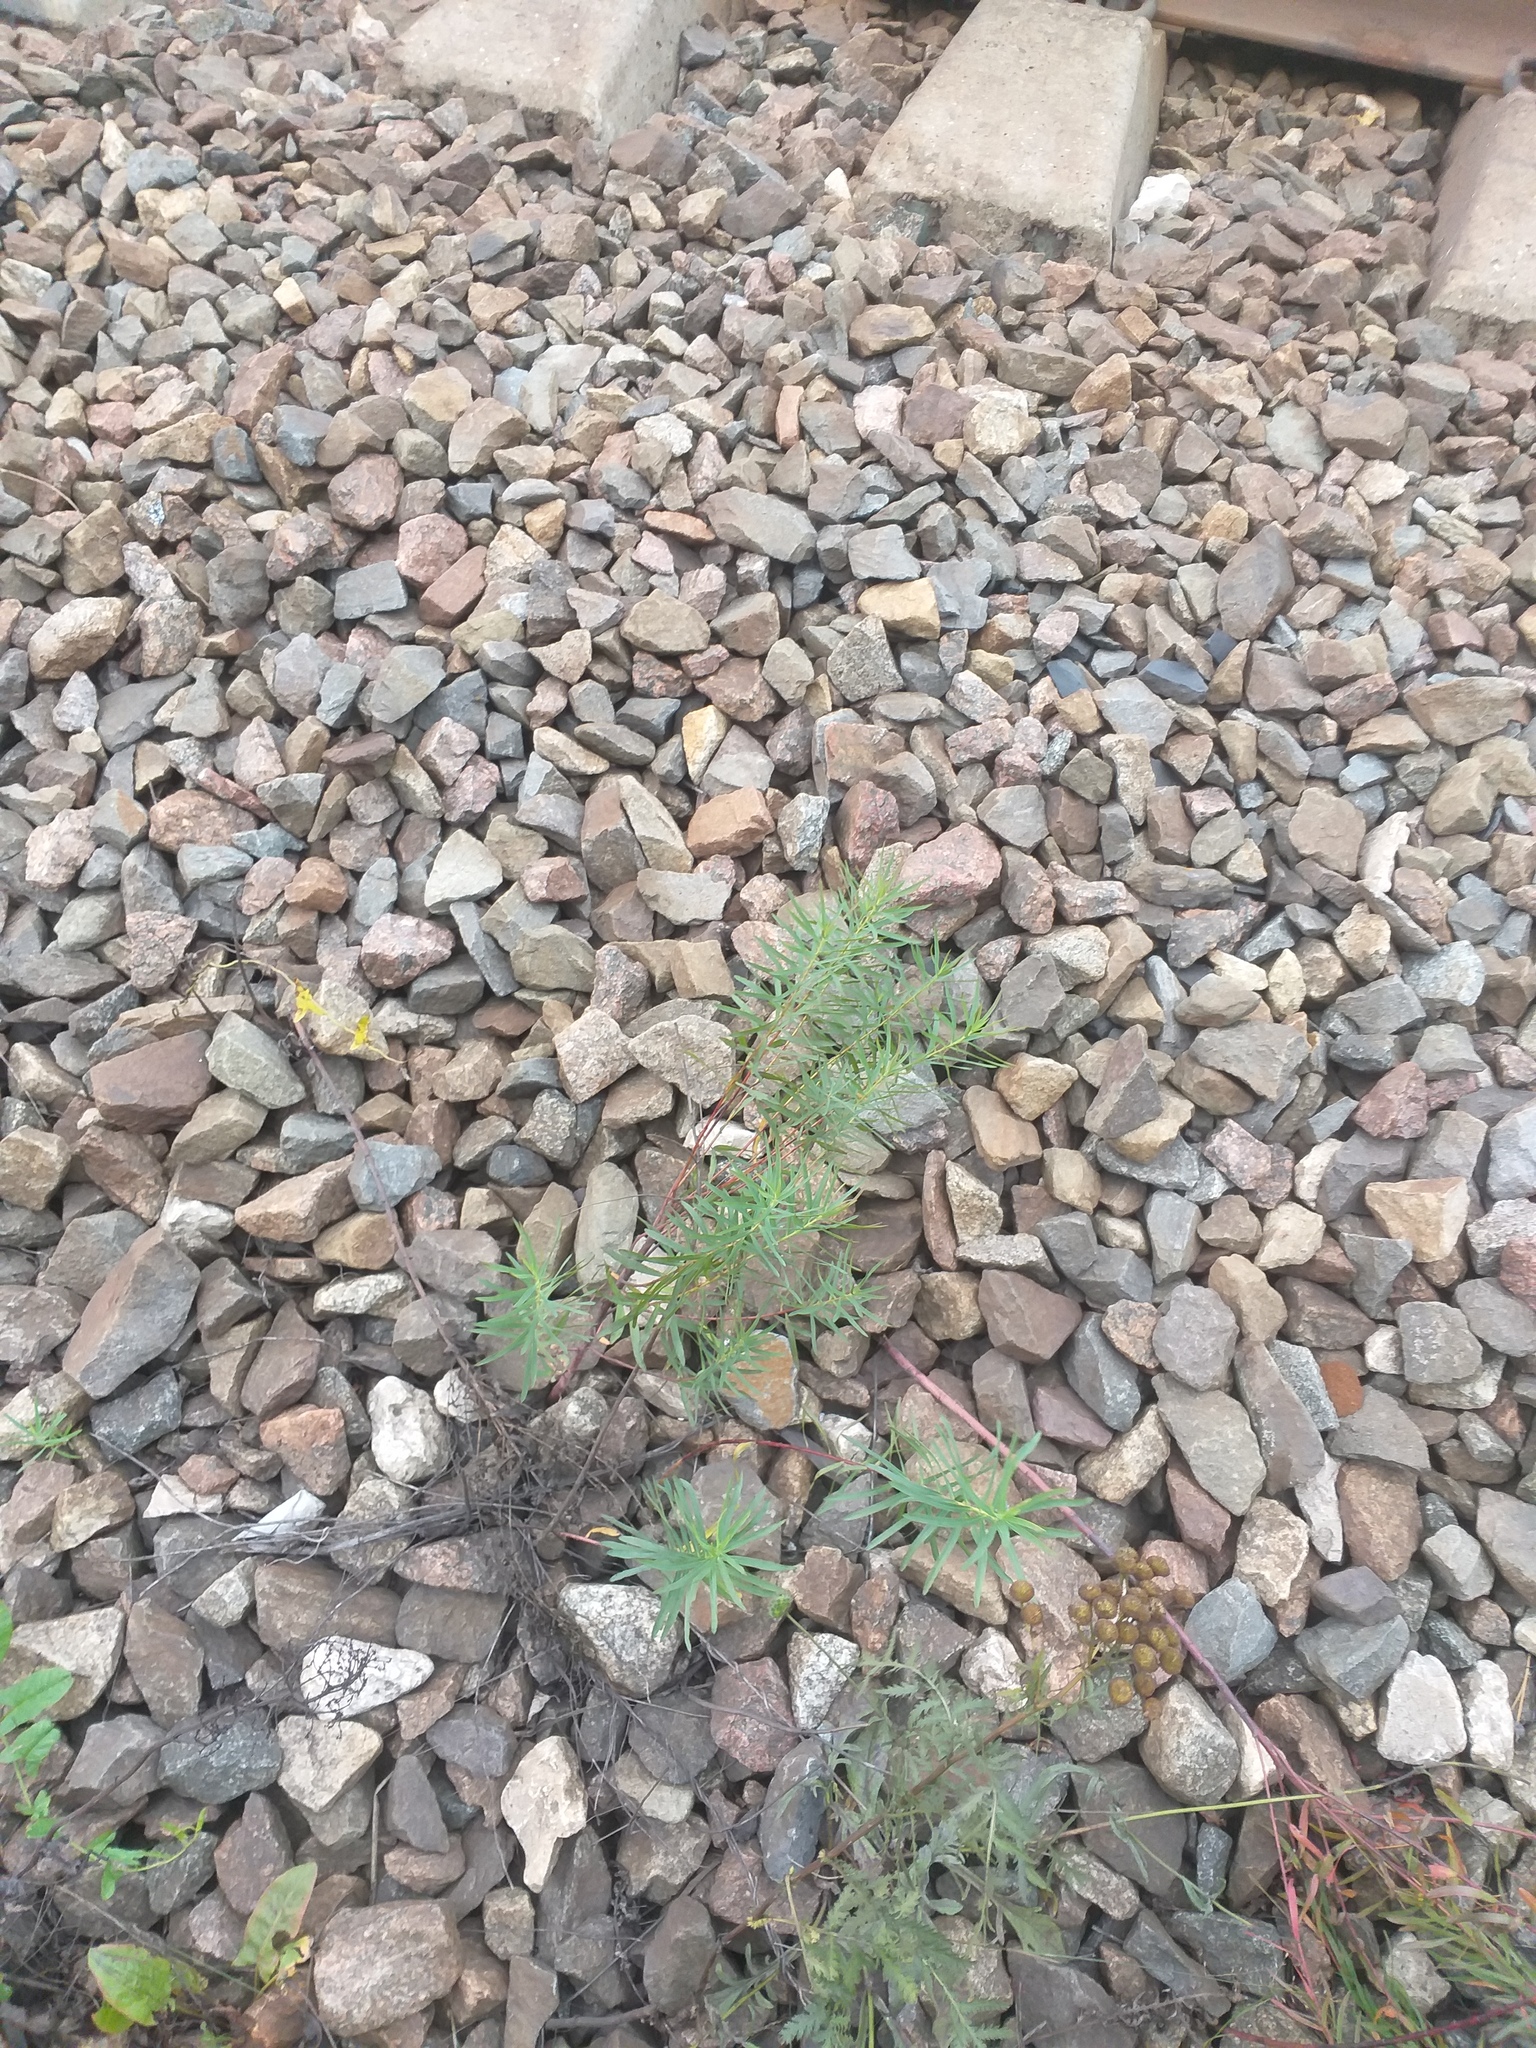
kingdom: Plantae
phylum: Tracheophyta
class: Magnoliopsida
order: Malpighiales
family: Euphorbiaceae
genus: Euphorbia
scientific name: Euphorbia virgata
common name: Leafy spurge
